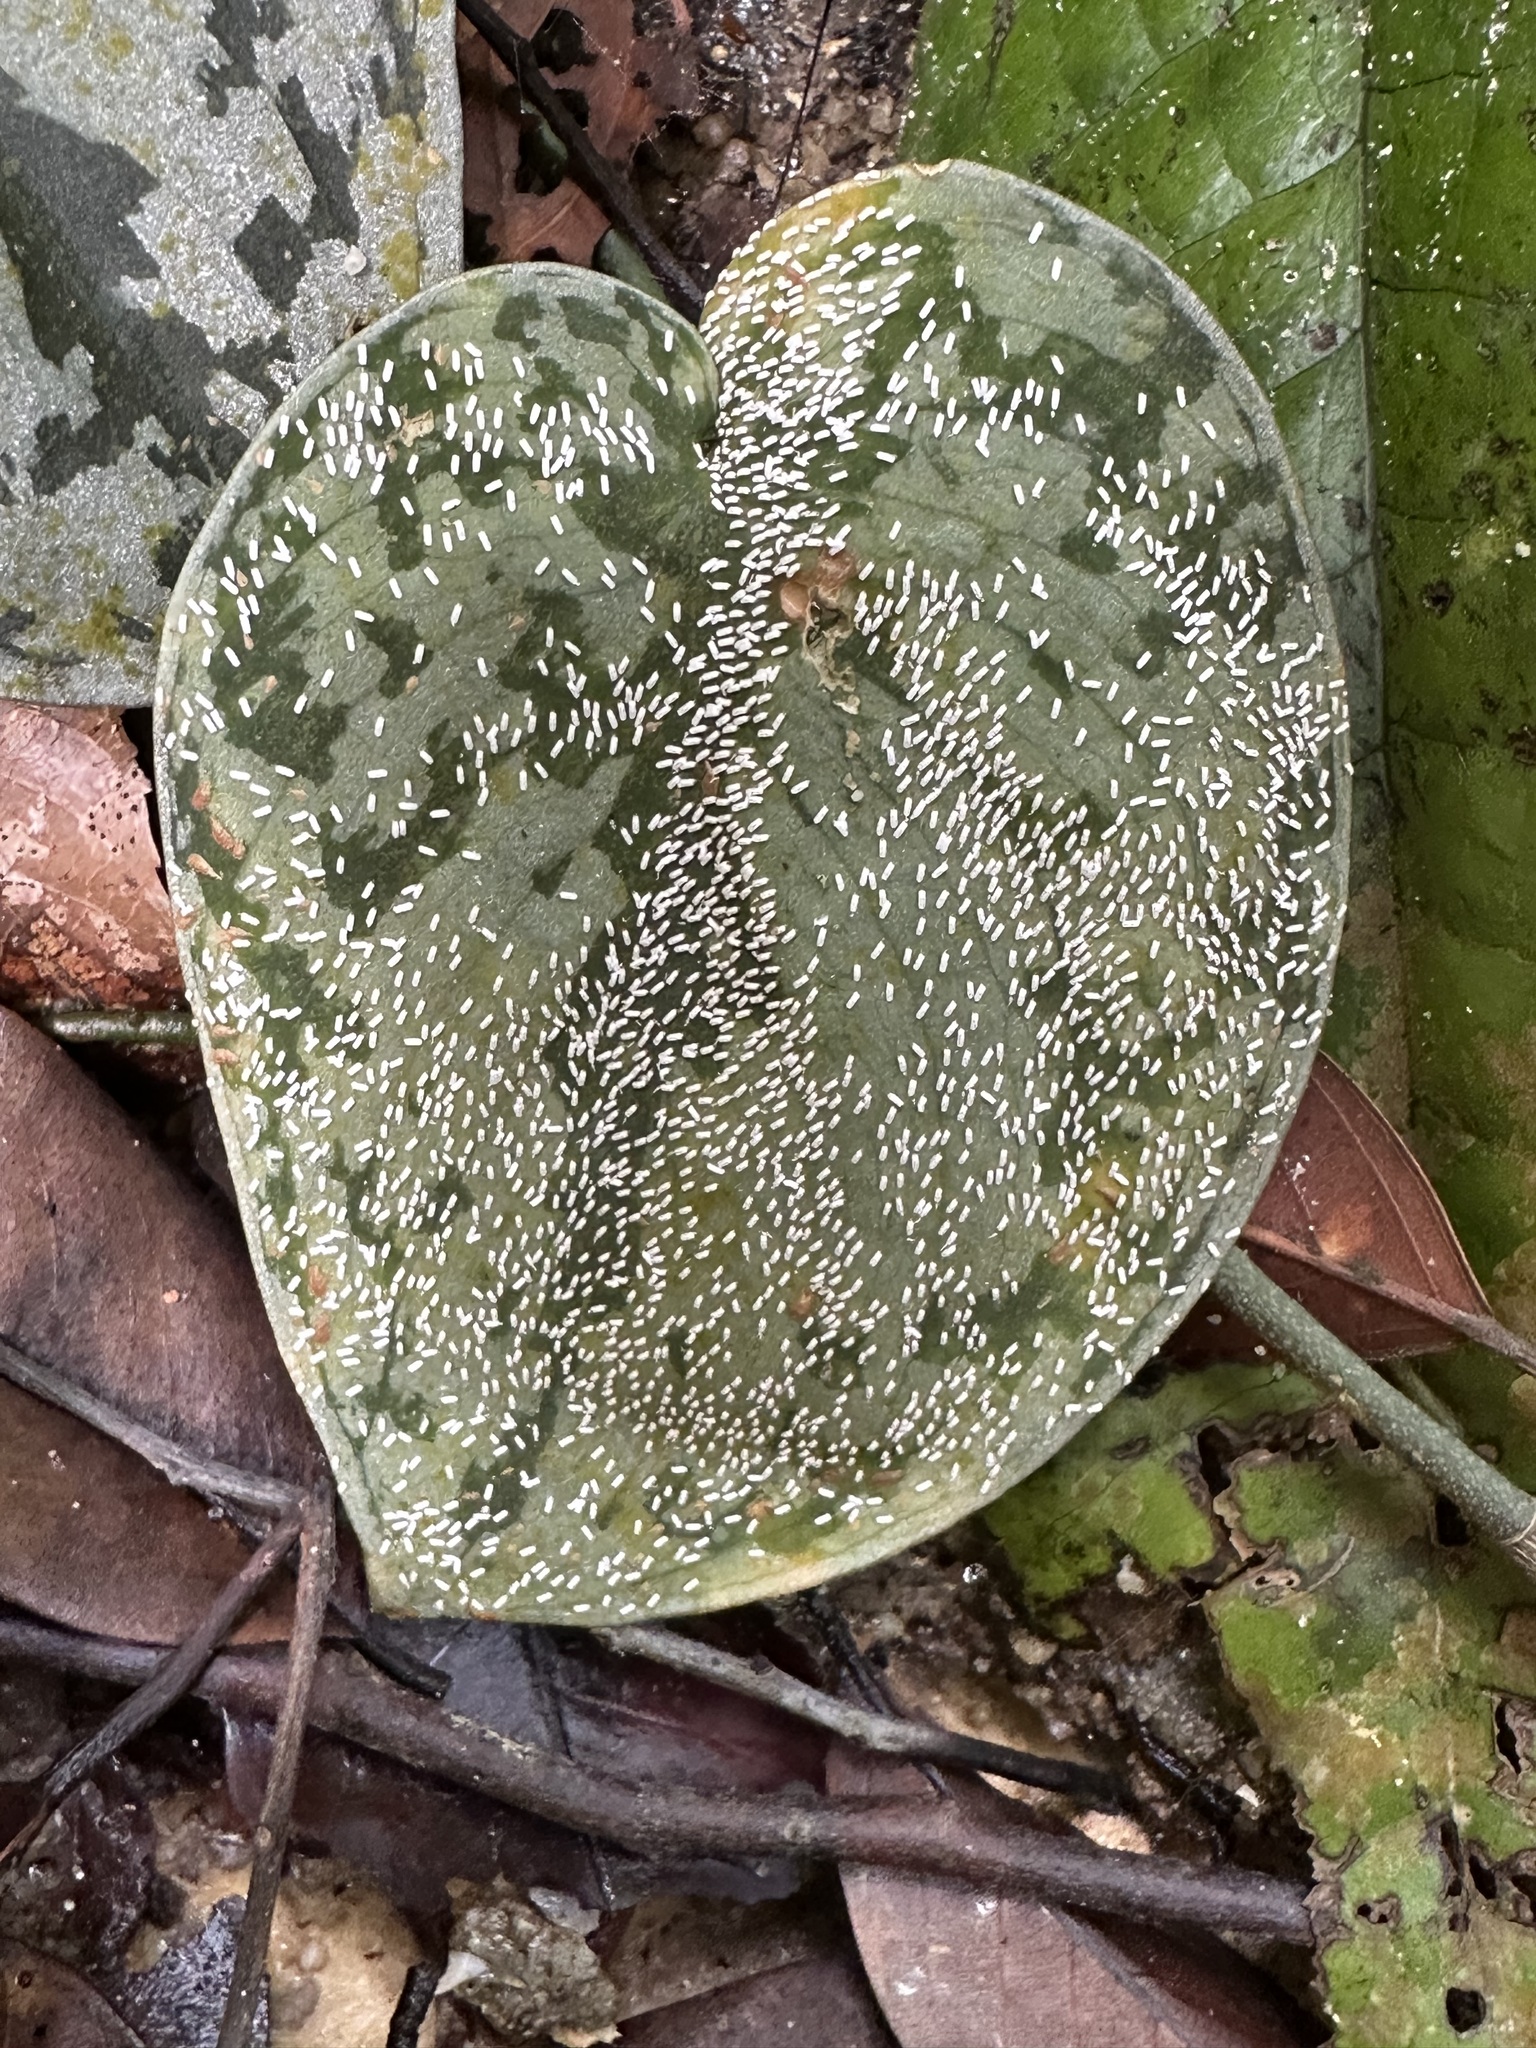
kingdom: Plantae
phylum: Tracheophyta
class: Liliopsida
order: Alismatales
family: Araceae
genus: Scindapsus
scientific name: Scindapsus pictus
